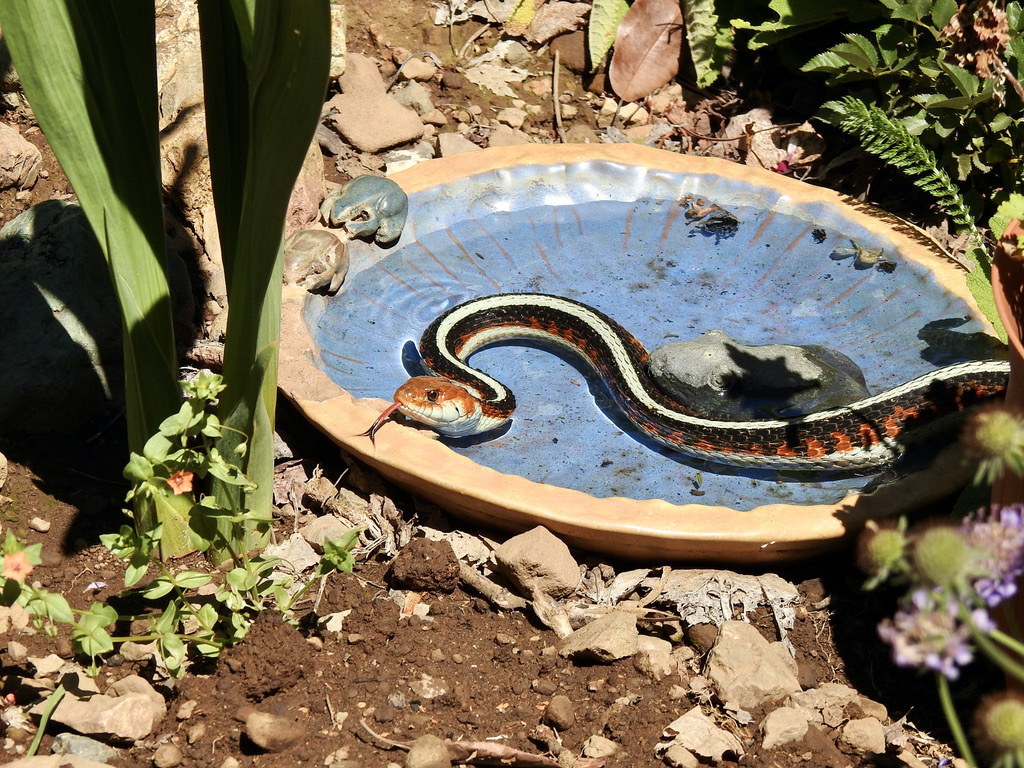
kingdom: Animalia
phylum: Chordata
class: Squamata
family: Colubridae
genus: Thamnophis
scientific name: Thamnophis sirtalis
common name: Common garter snake
